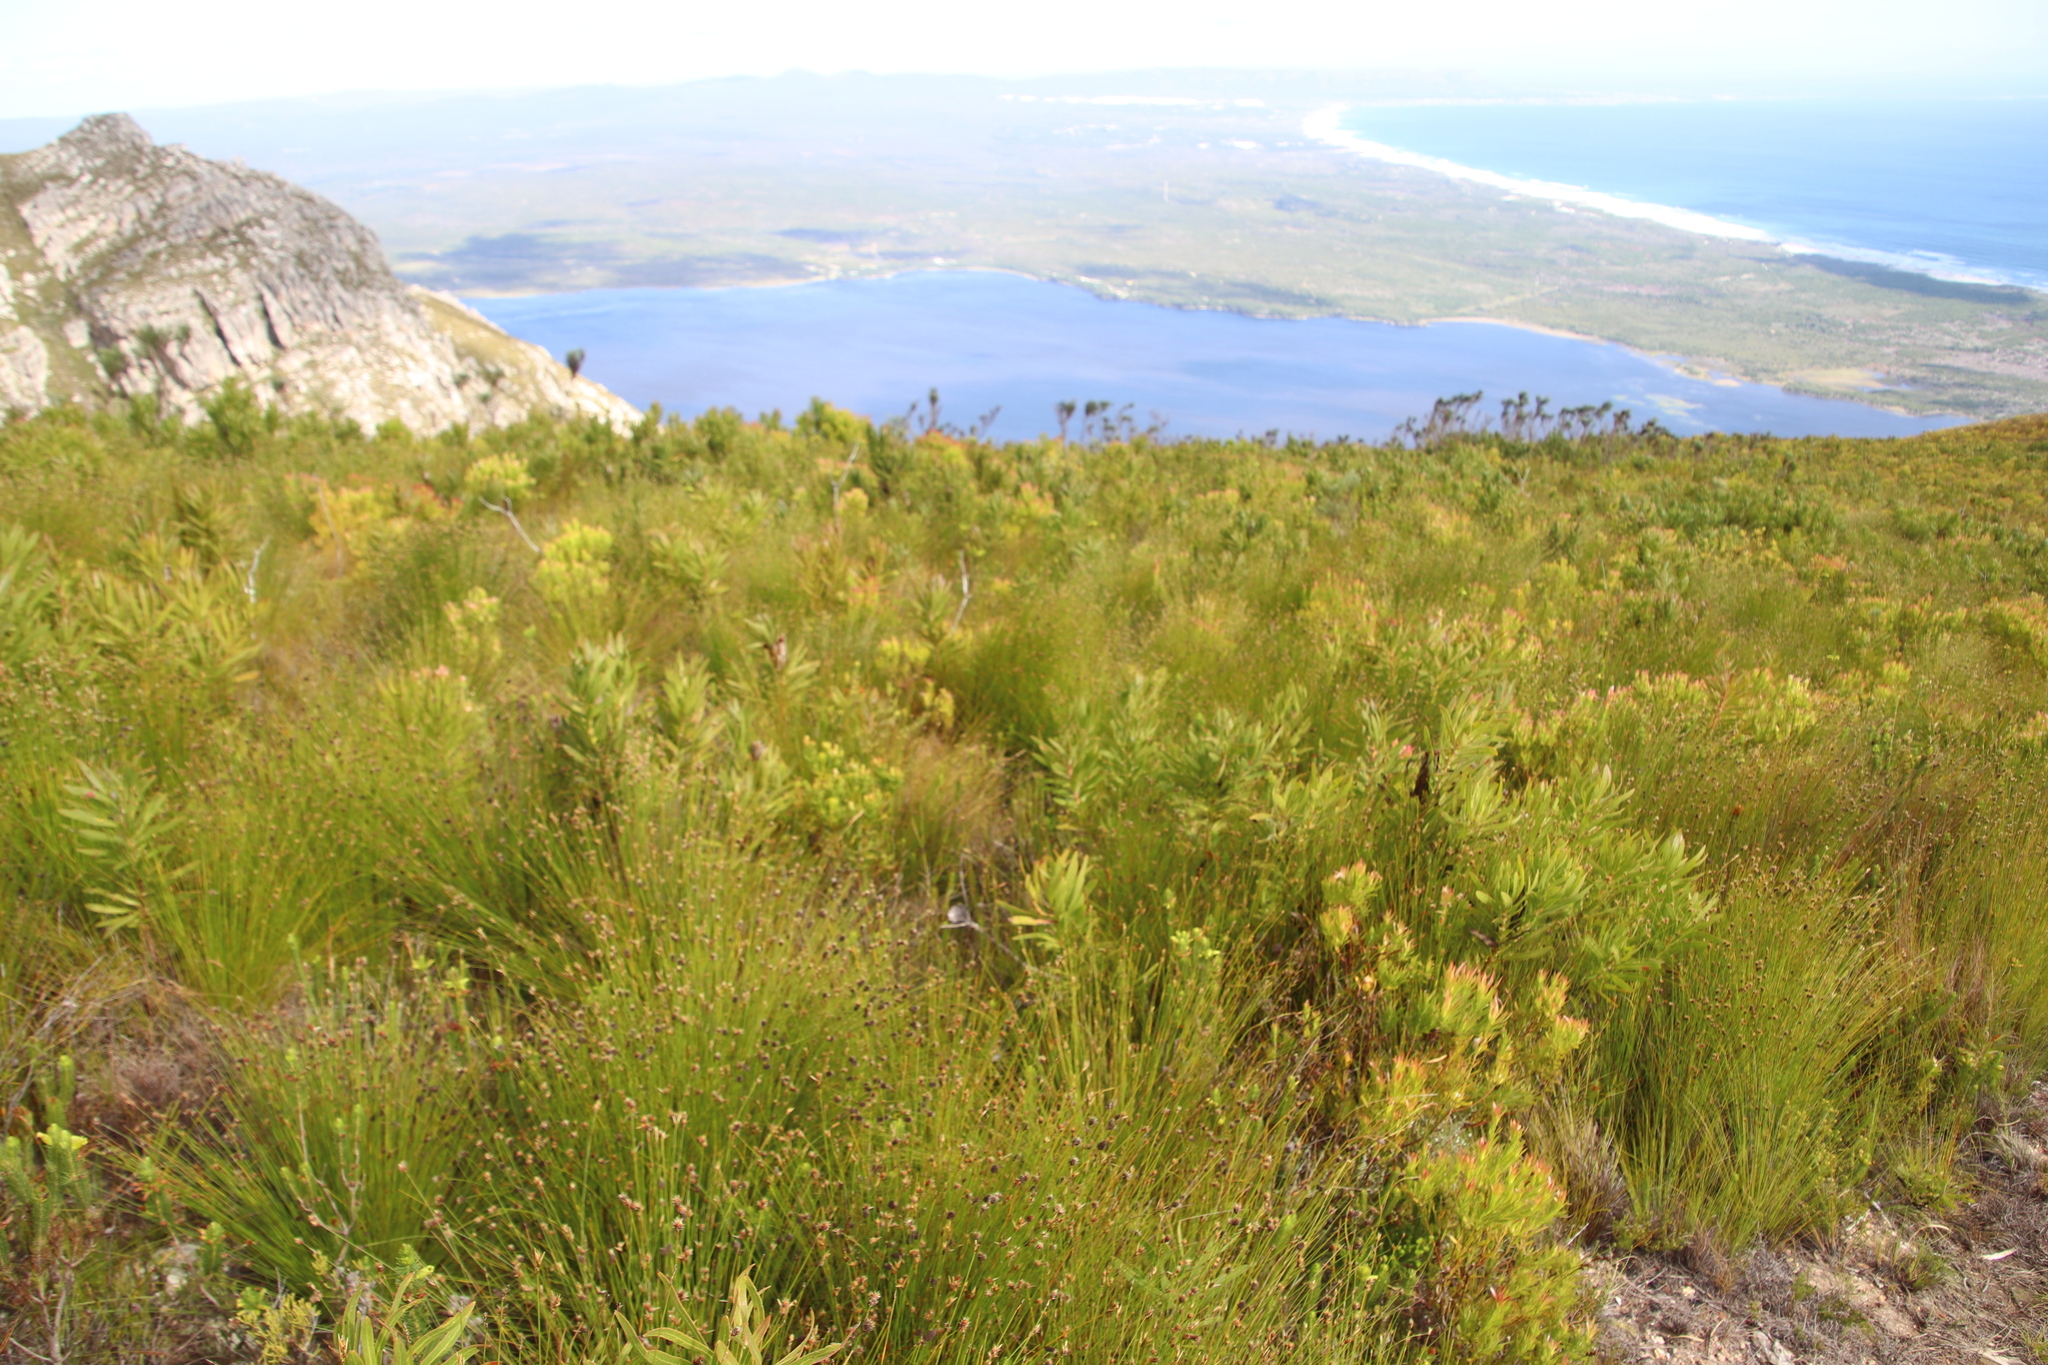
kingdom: Plantae
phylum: Tracheophyta
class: Liliopsida
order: Poales
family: Restionaceae
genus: Hypodiscus
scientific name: Hypodiscus aristatus
